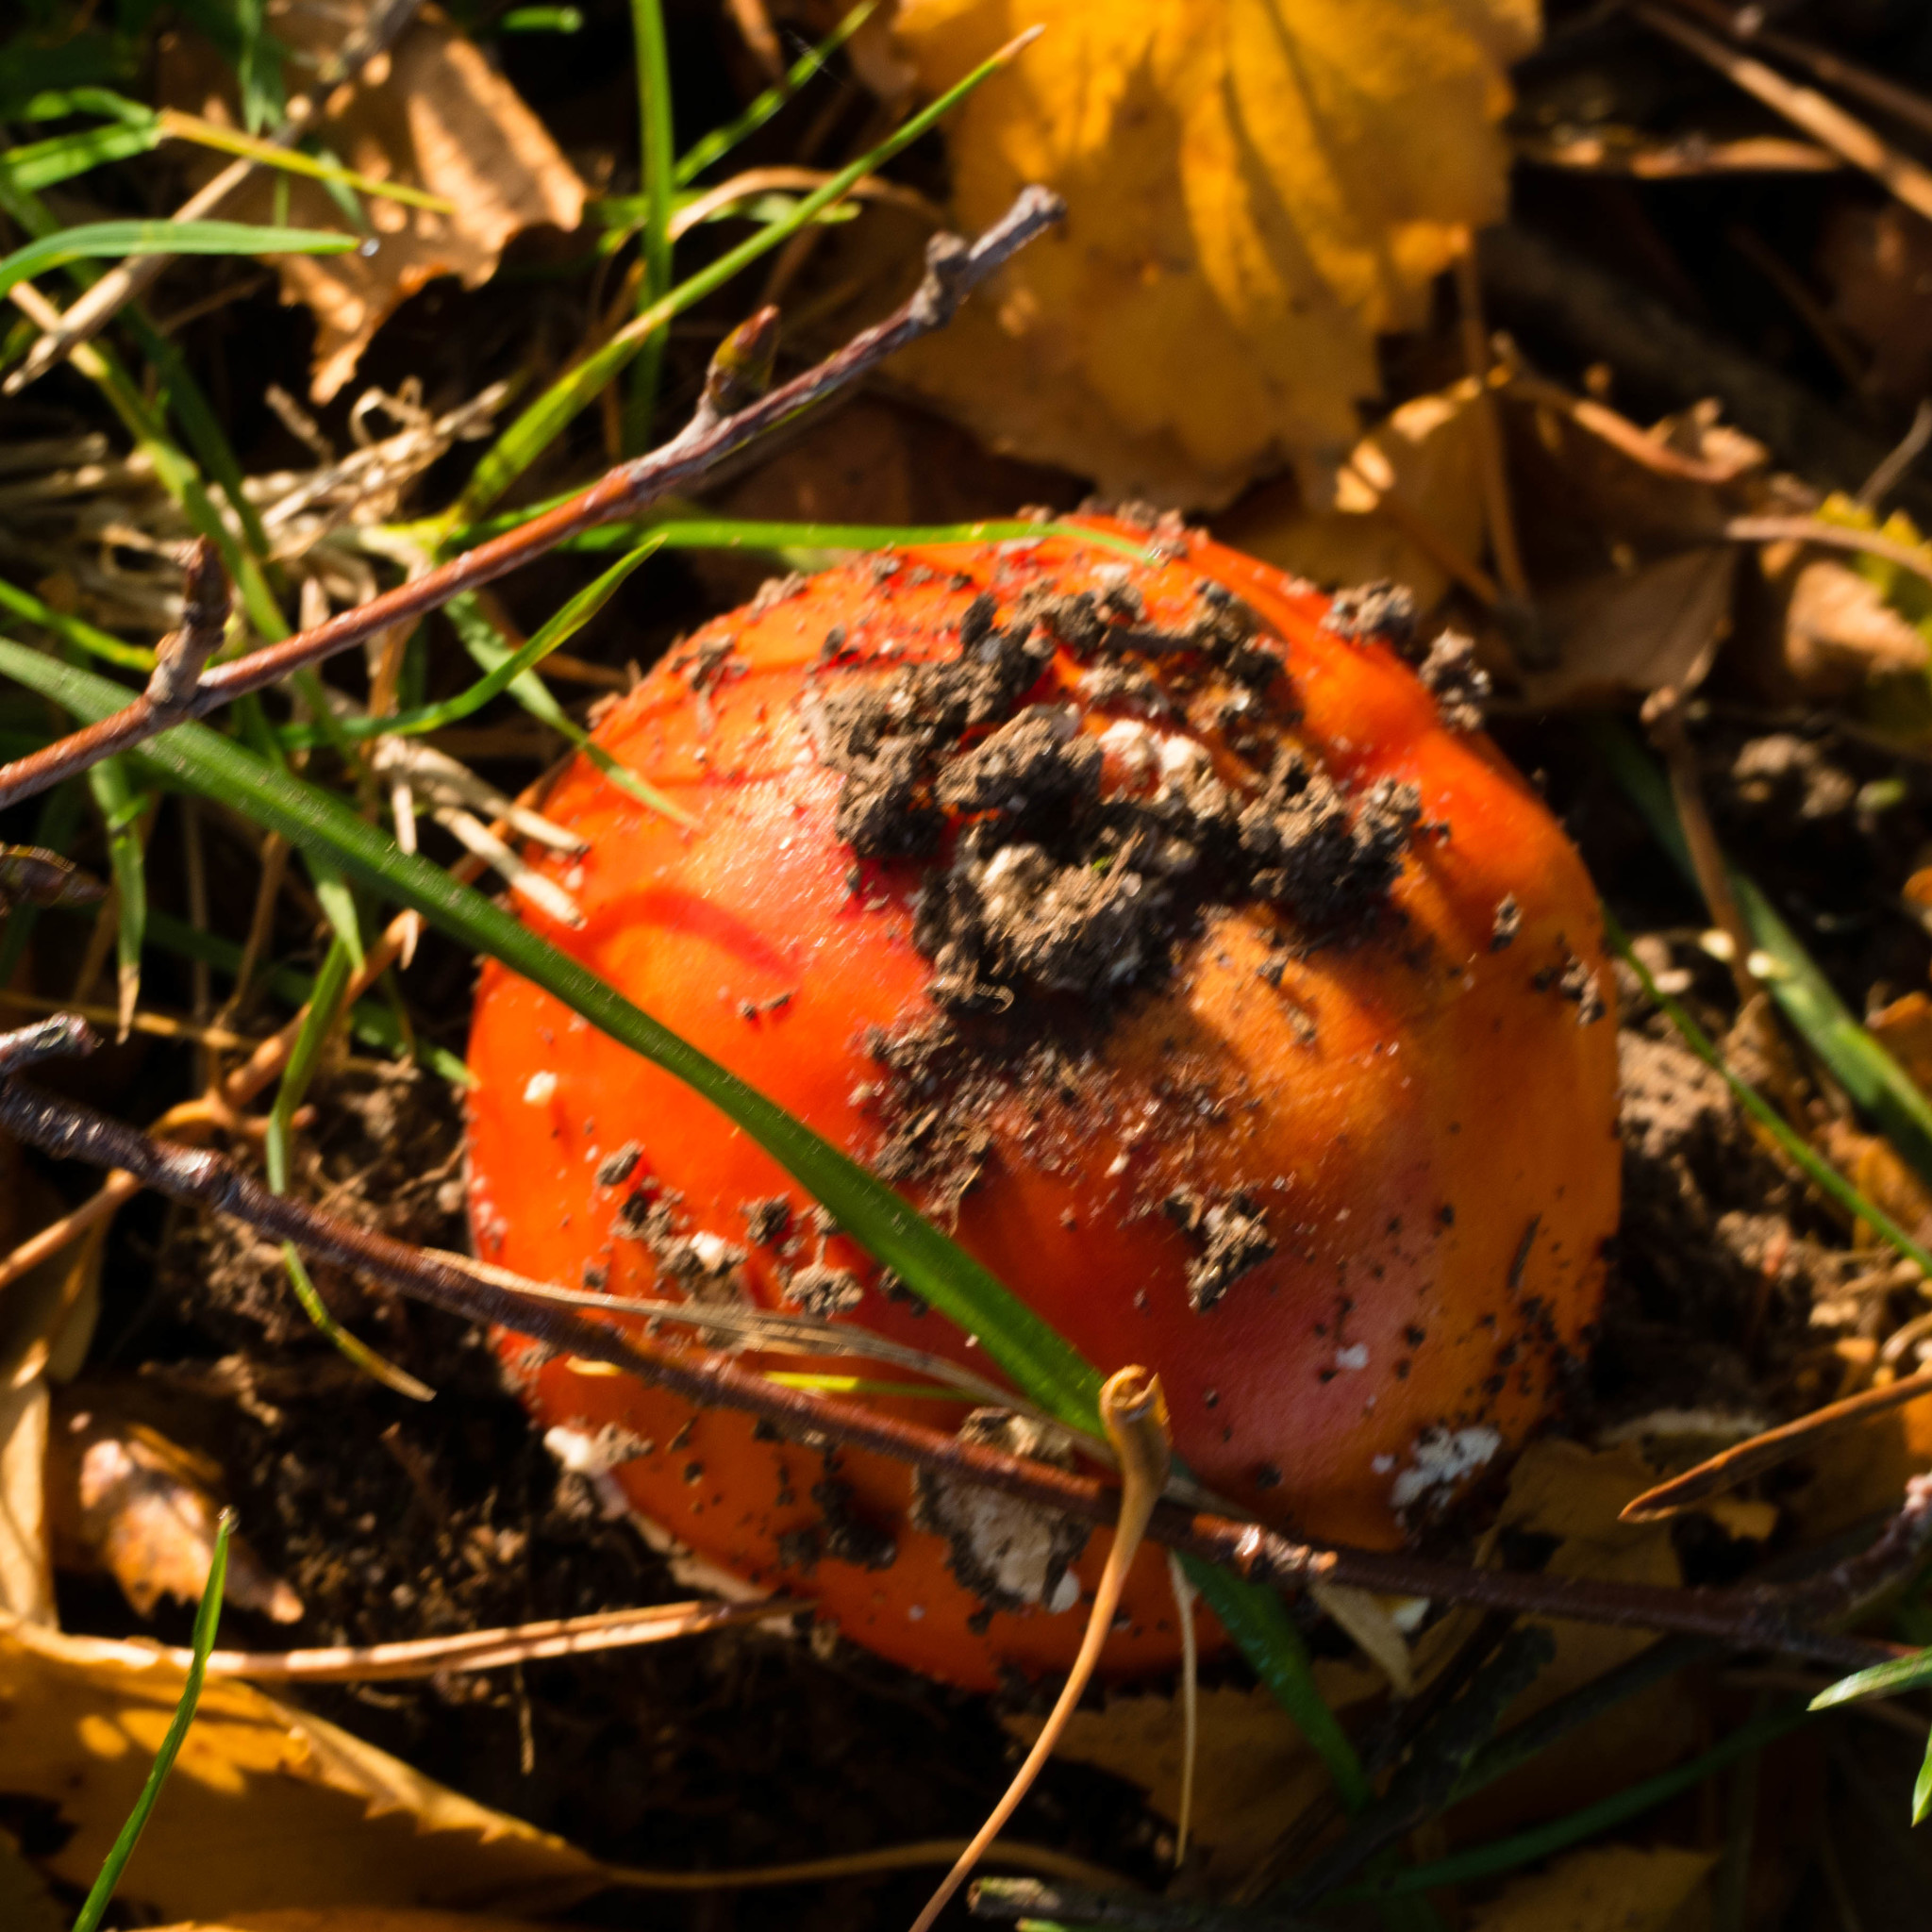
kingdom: Fungi
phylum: Basidiomycota
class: Agaricomycetes
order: Agaricales
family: Amanitaceae
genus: Amanita
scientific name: Amanita muscaria
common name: Fly agaric
